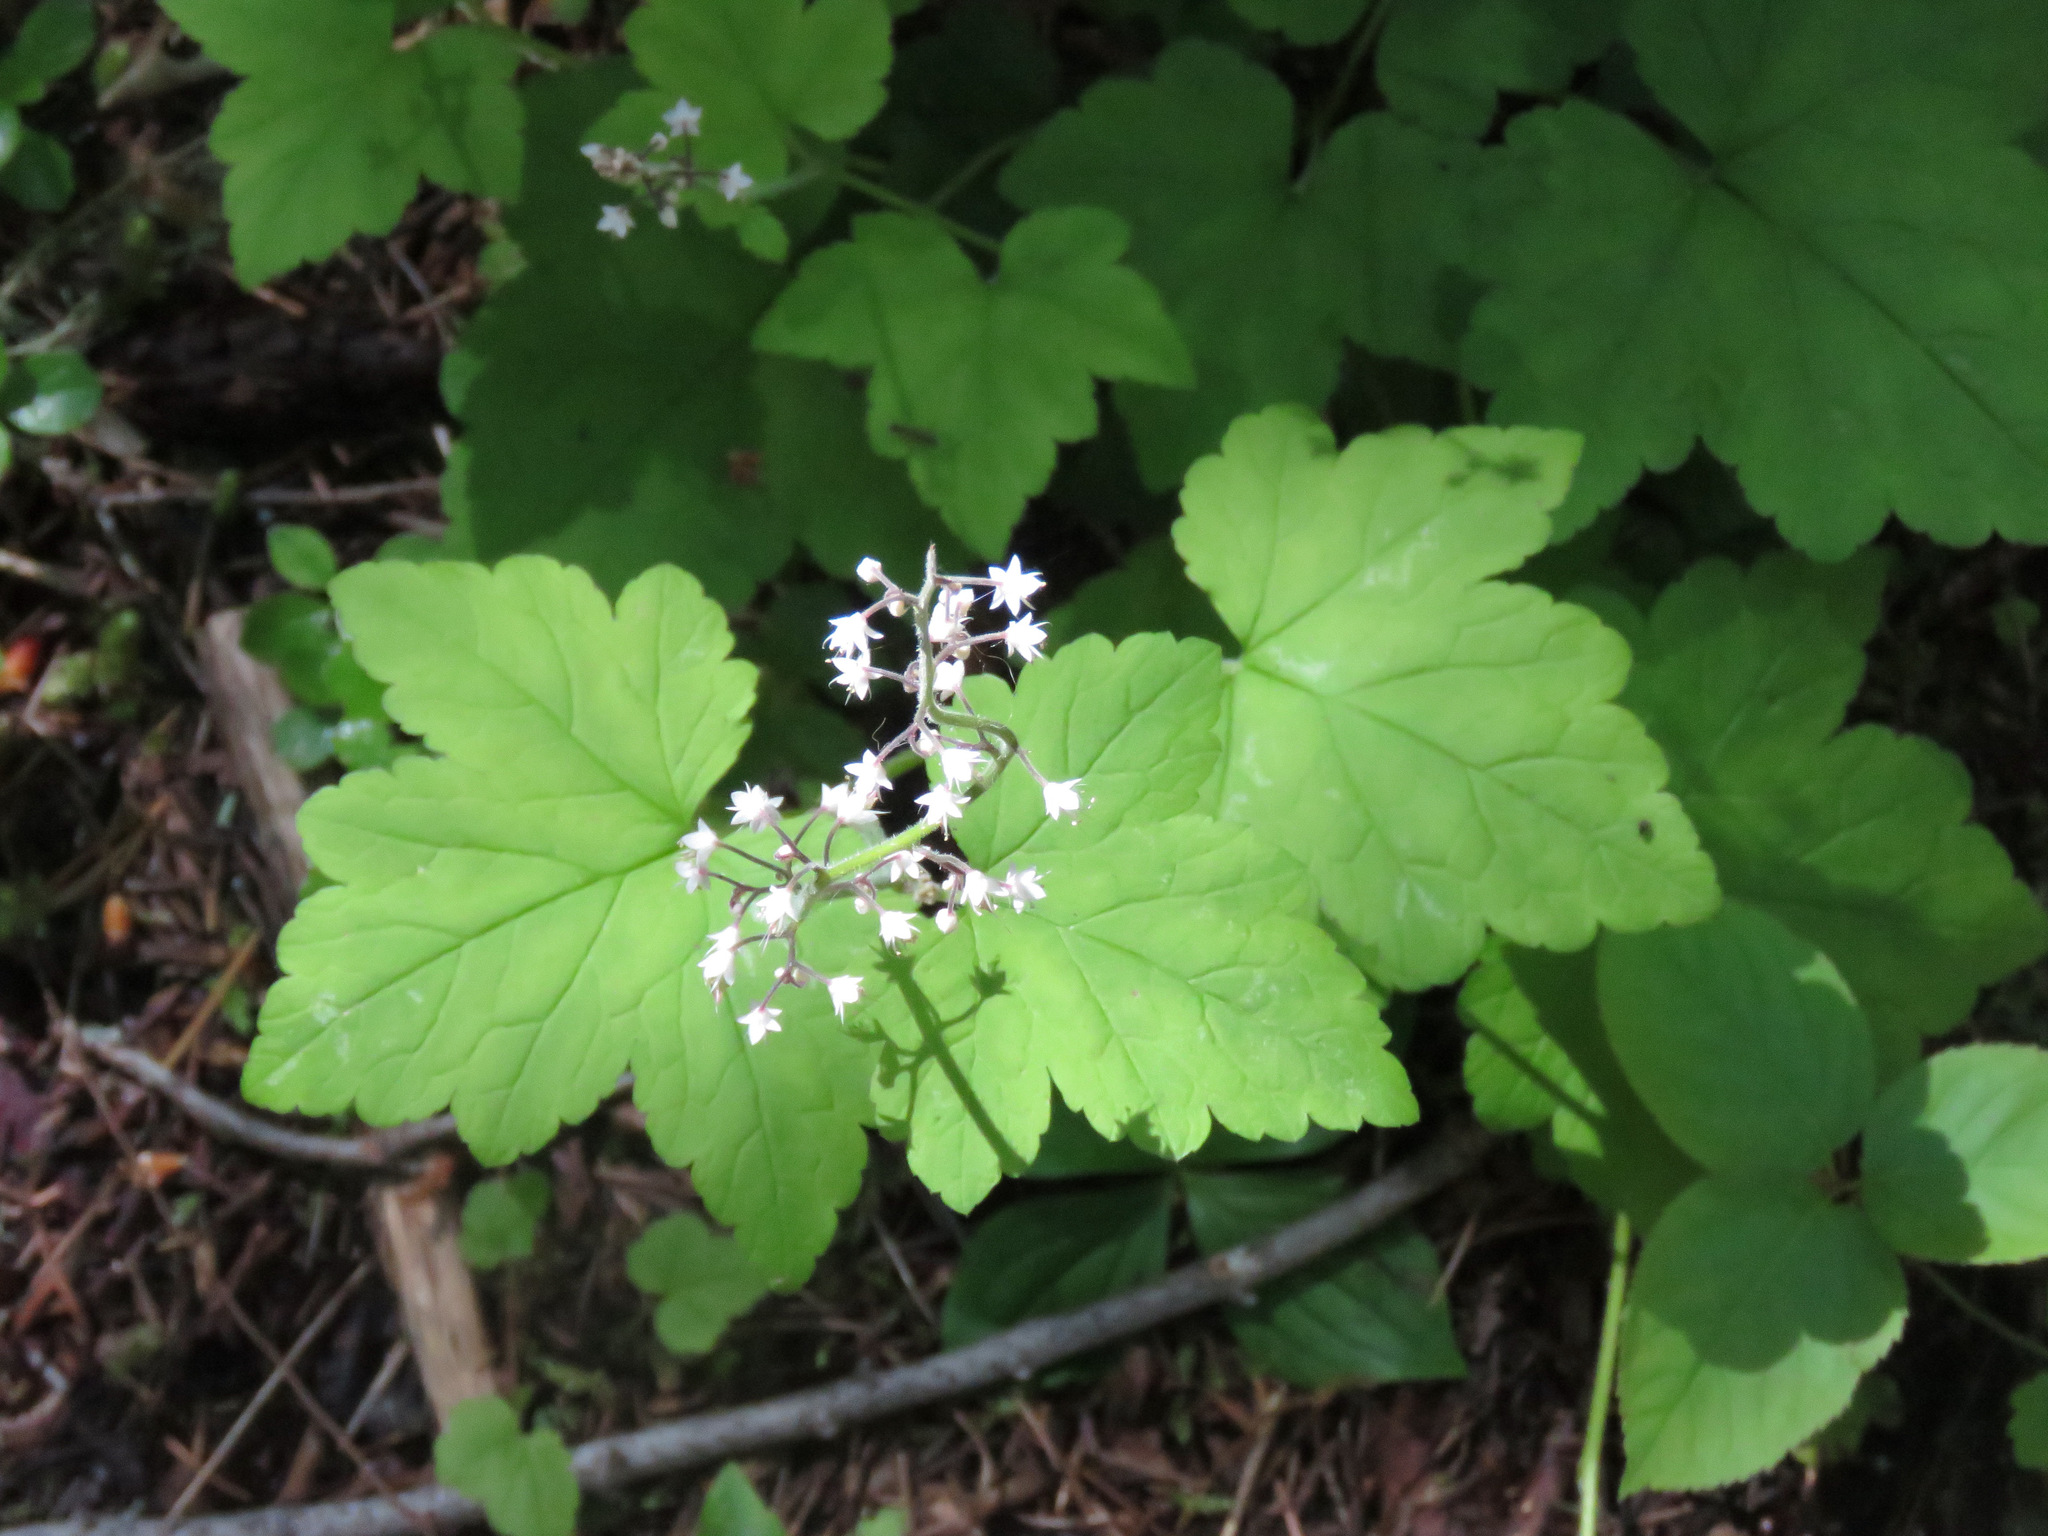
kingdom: Plantae
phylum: Tracheophyta
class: Magnoliopsida
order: Saxifragales
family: Saxifragaceae
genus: Tiarella
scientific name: Tiarella trifoliata
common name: Sugar-scoop
